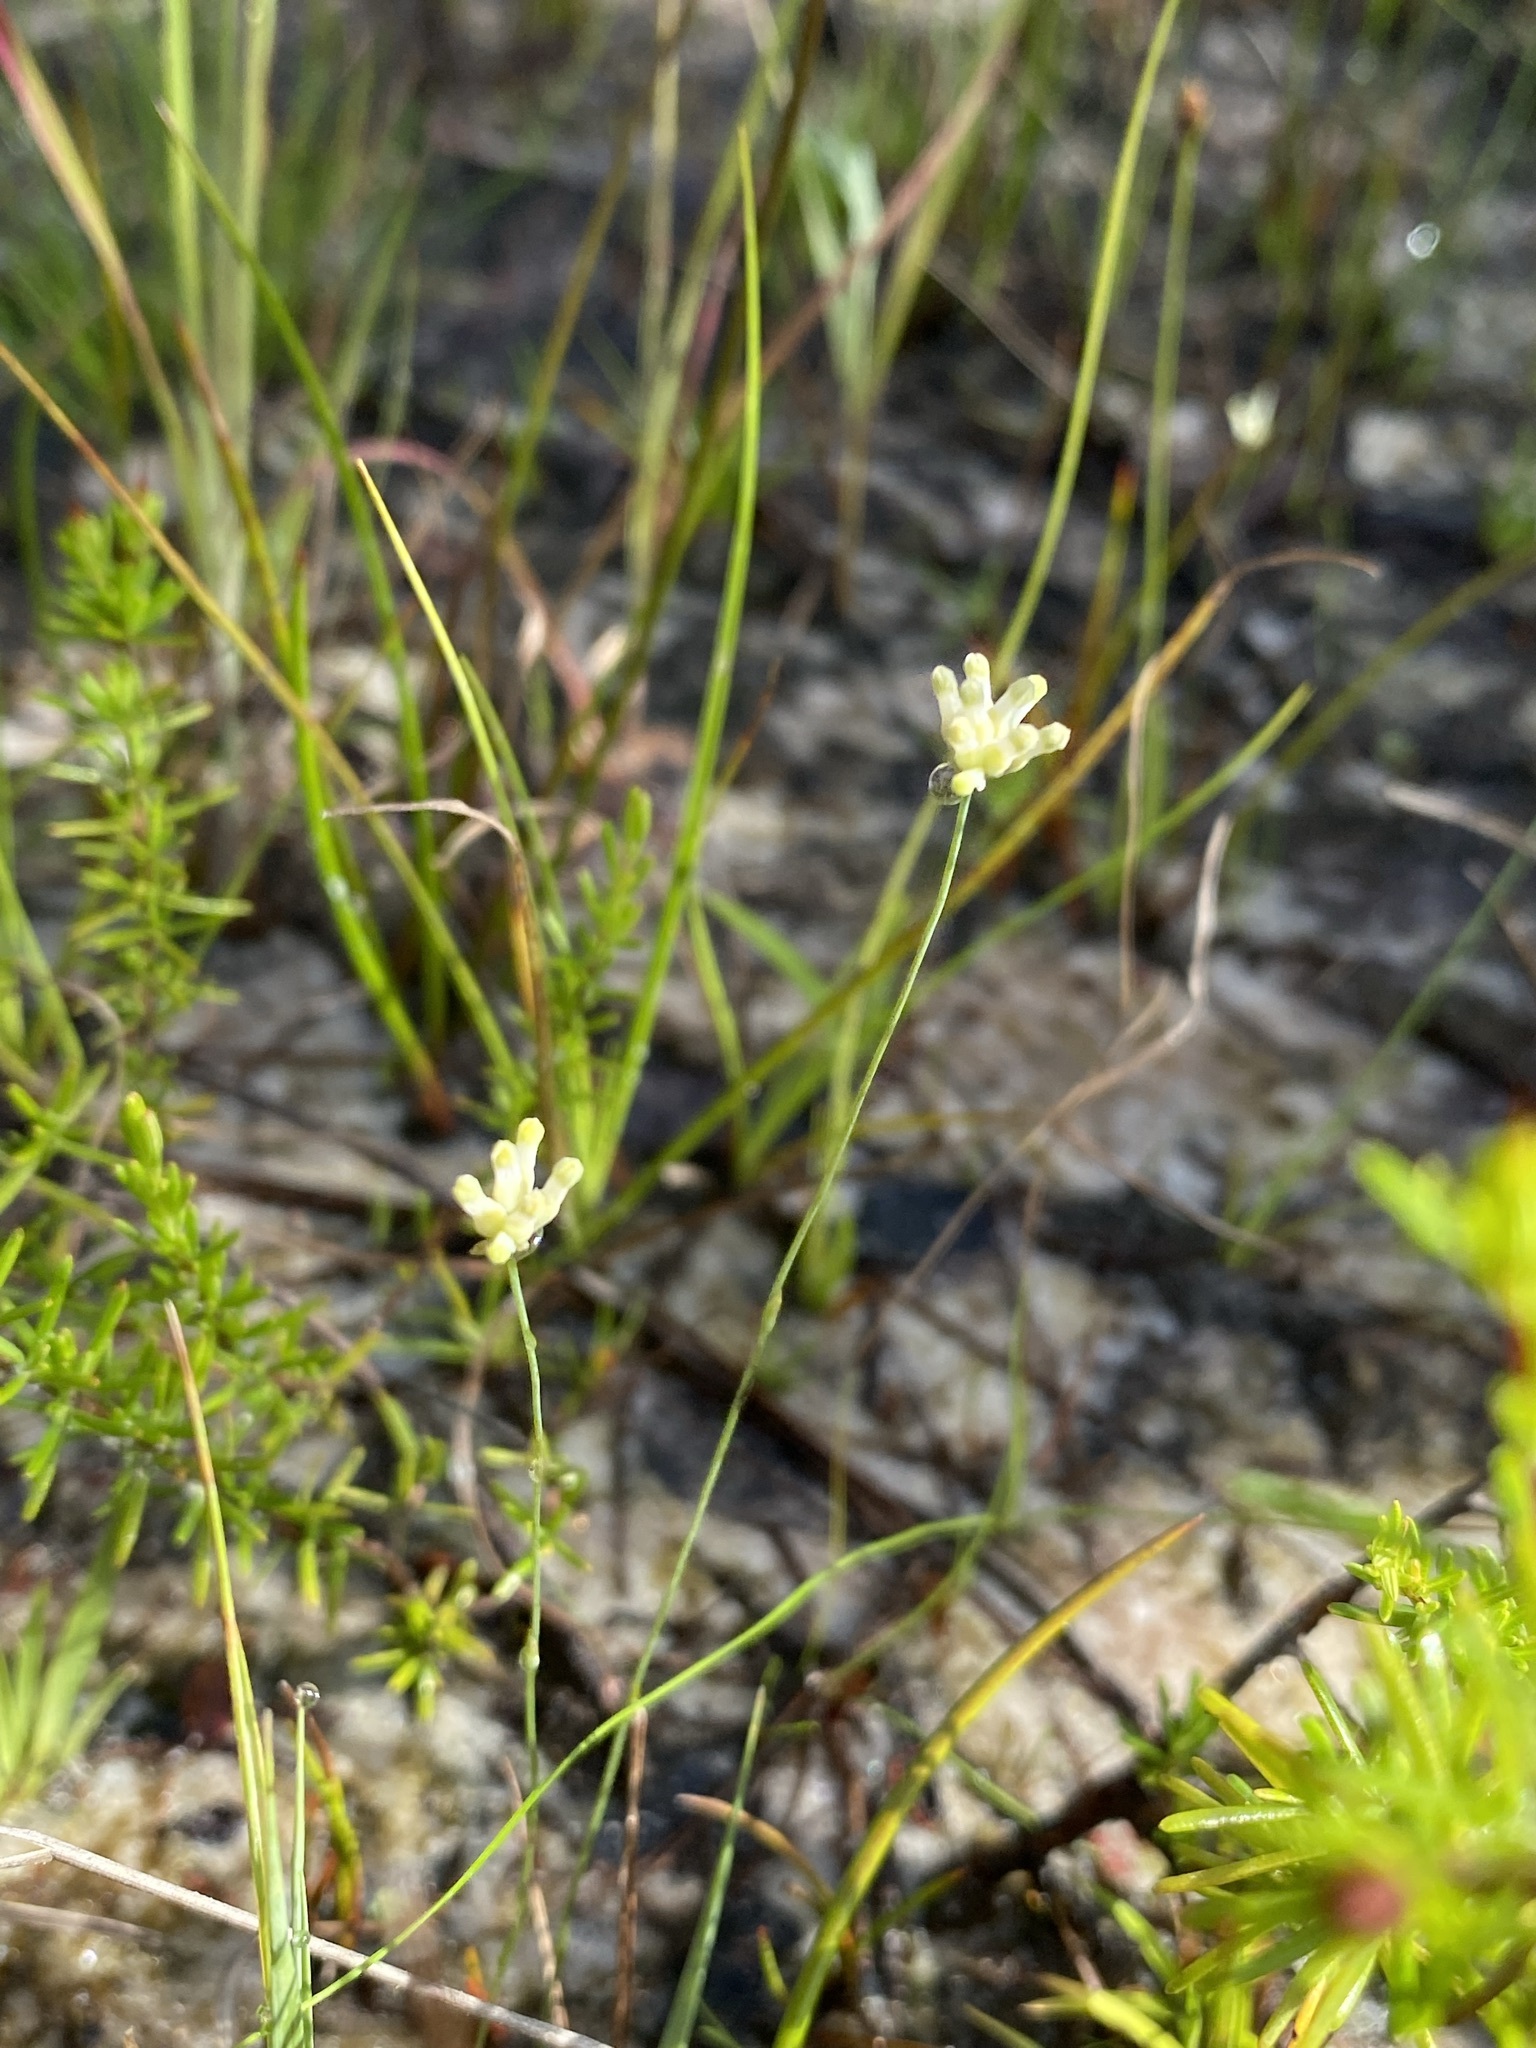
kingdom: Plantae
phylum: Tracheophyta
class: Liliopsida
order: Dioscoreales
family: Burmanniaceae
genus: Burmannia
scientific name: Burmannia capitata
